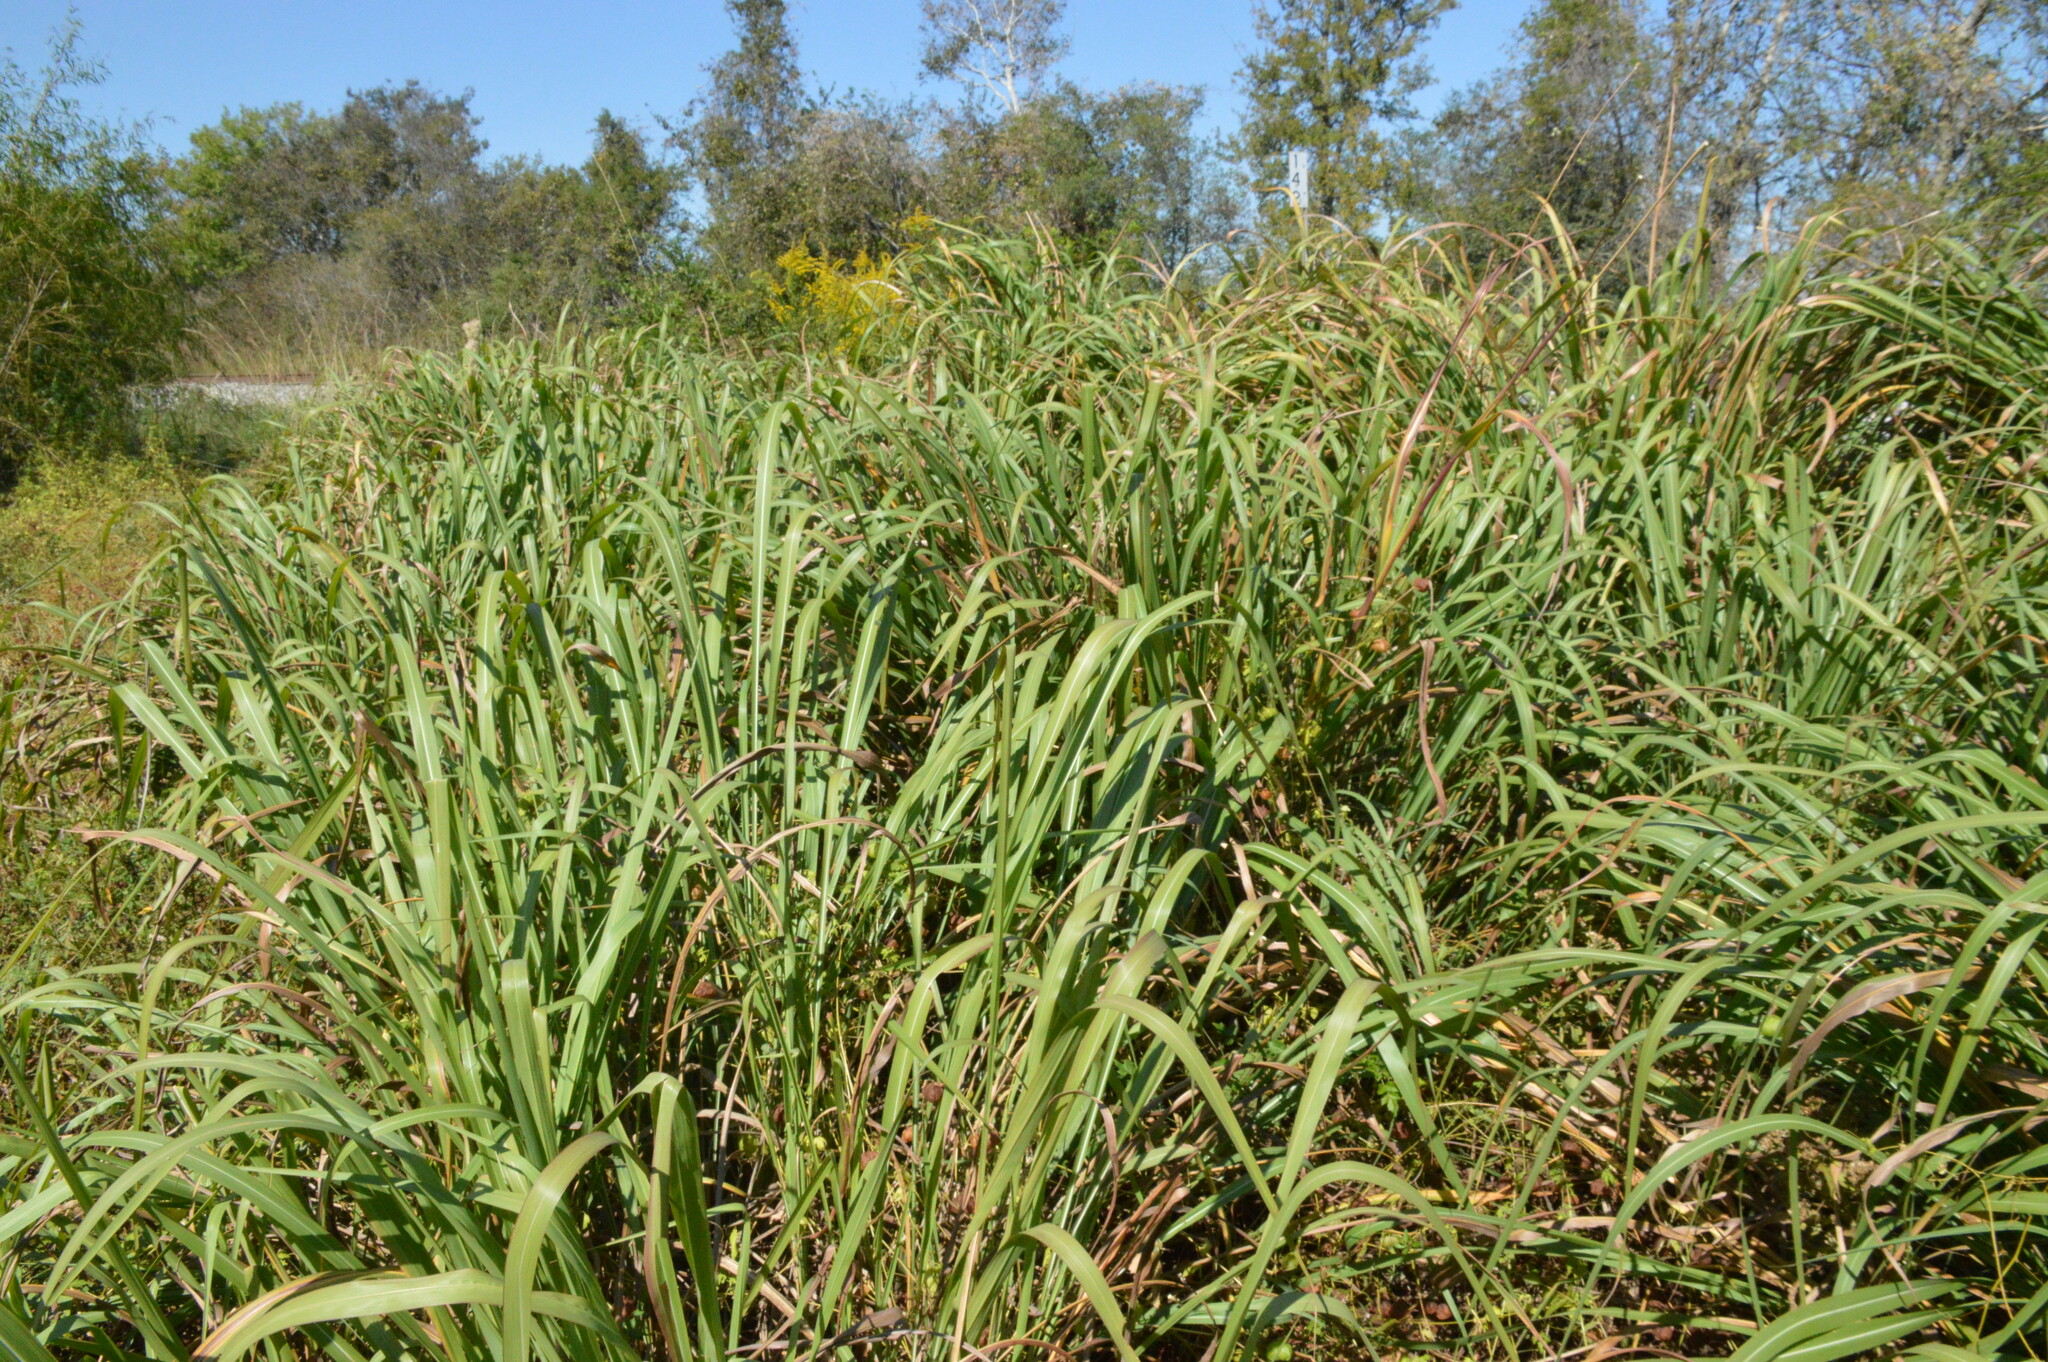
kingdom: Plantae
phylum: Tracheophyta
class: Liliopsida
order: Poales
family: Poaceae
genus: Tripsacum
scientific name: Tripsacum dactyloides
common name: Buffalo-grass
